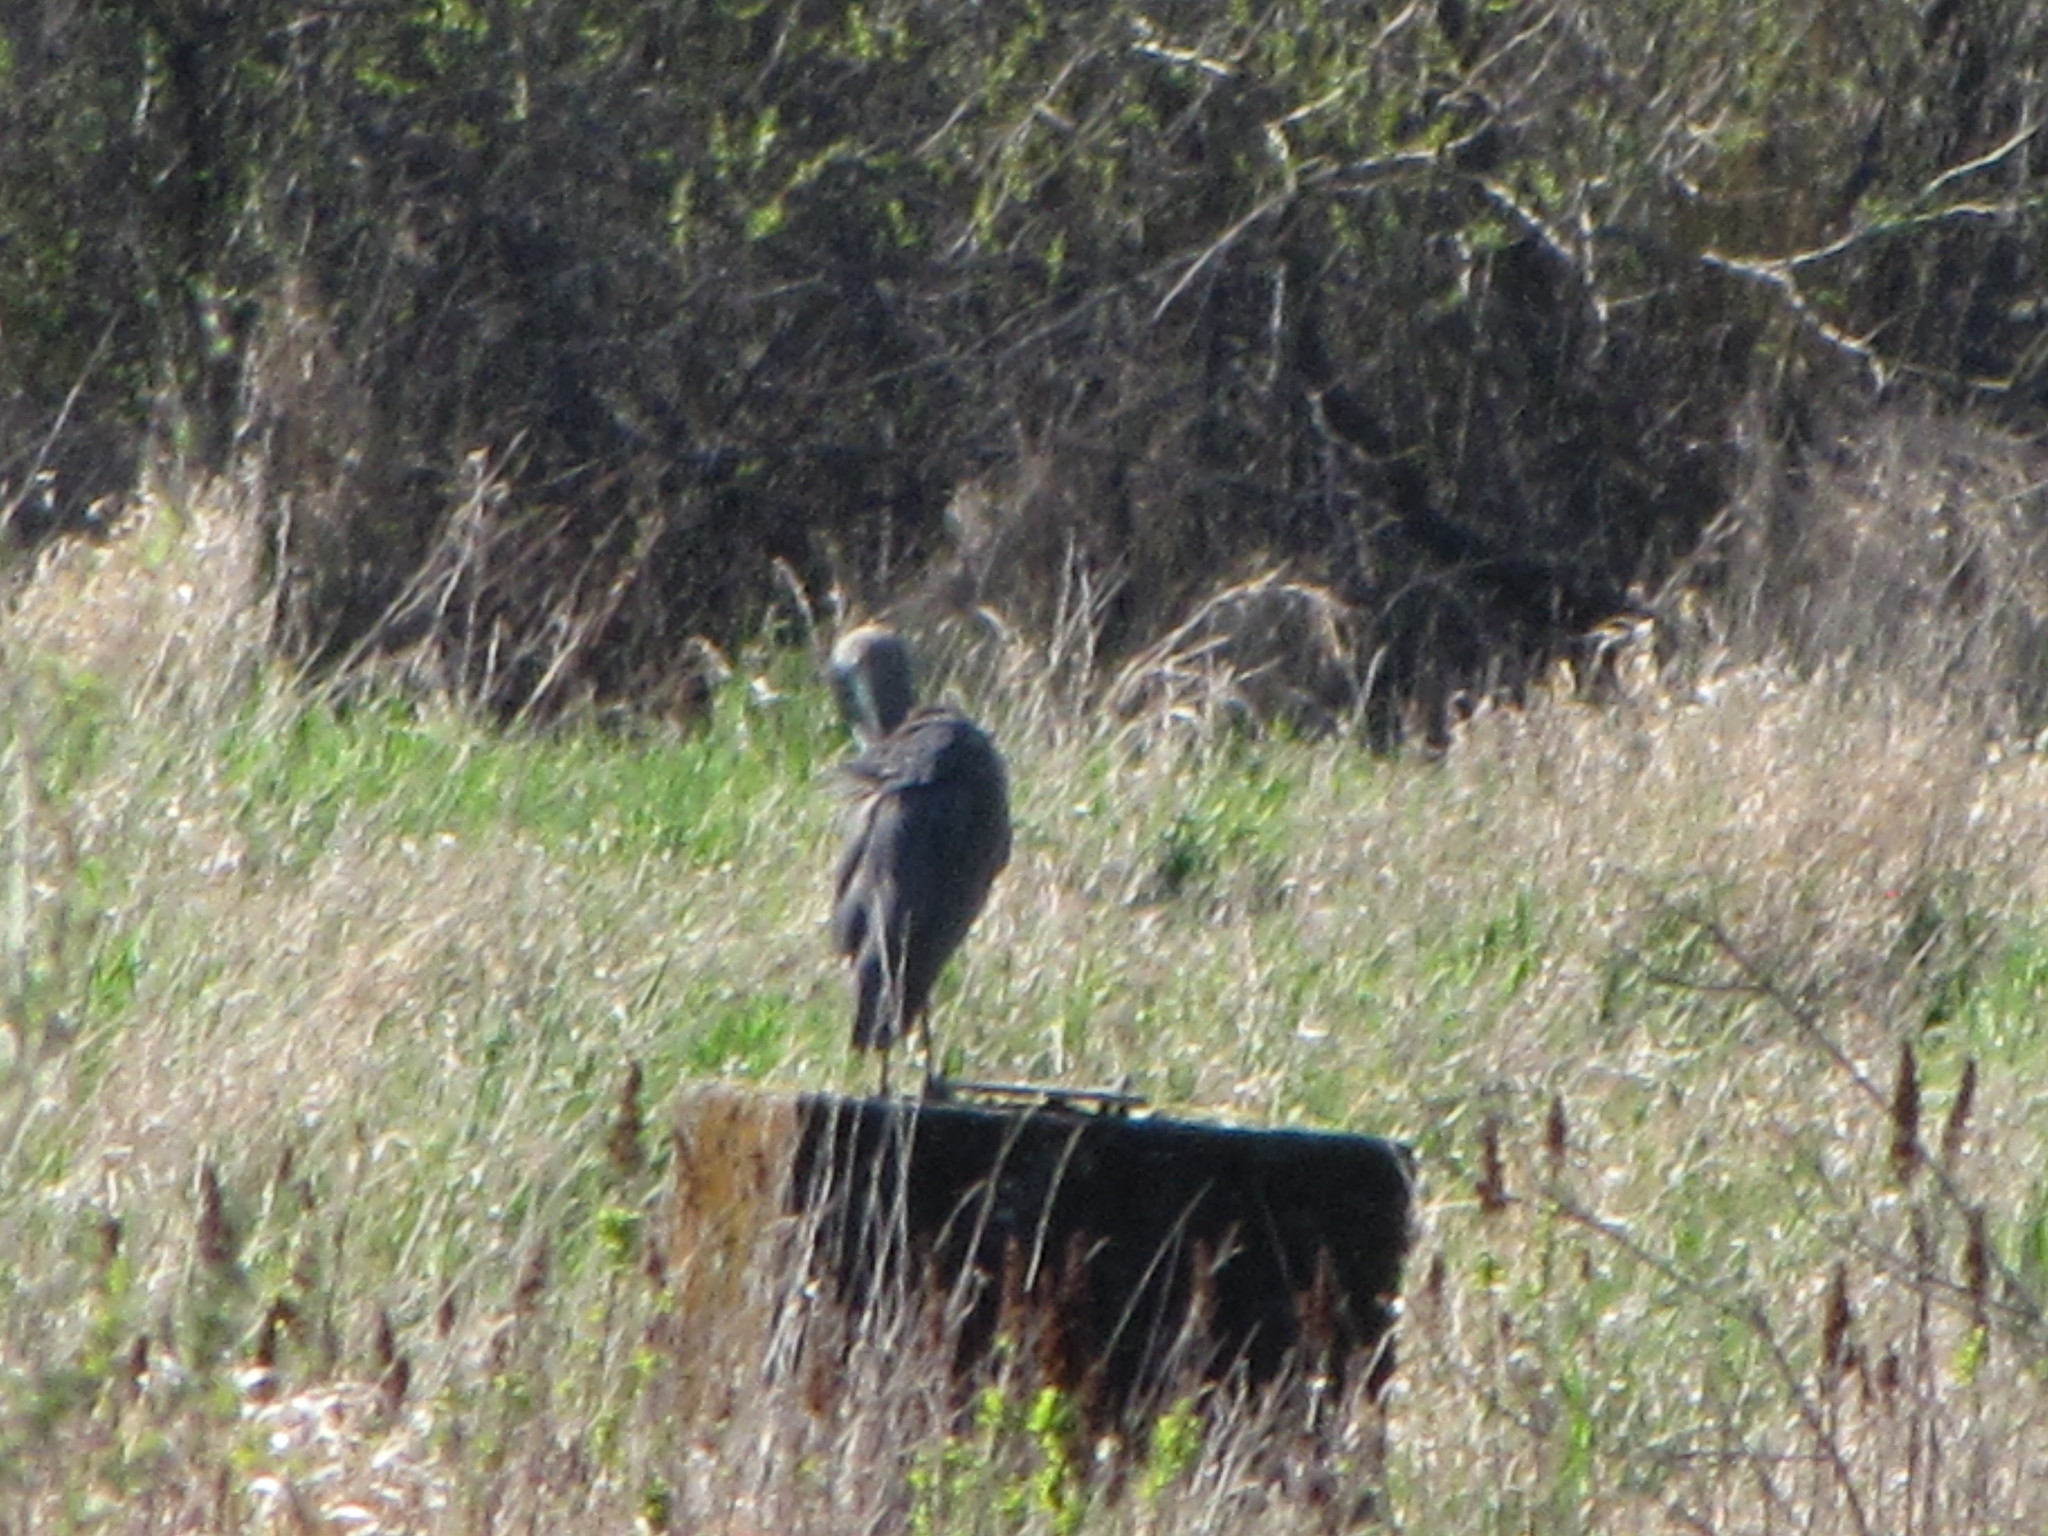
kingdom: Animalia
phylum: Chordata
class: Aves
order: Pelecaniformes
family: Ardeidae
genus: Ardea
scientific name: Ardea herodias
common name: Great blue heron
